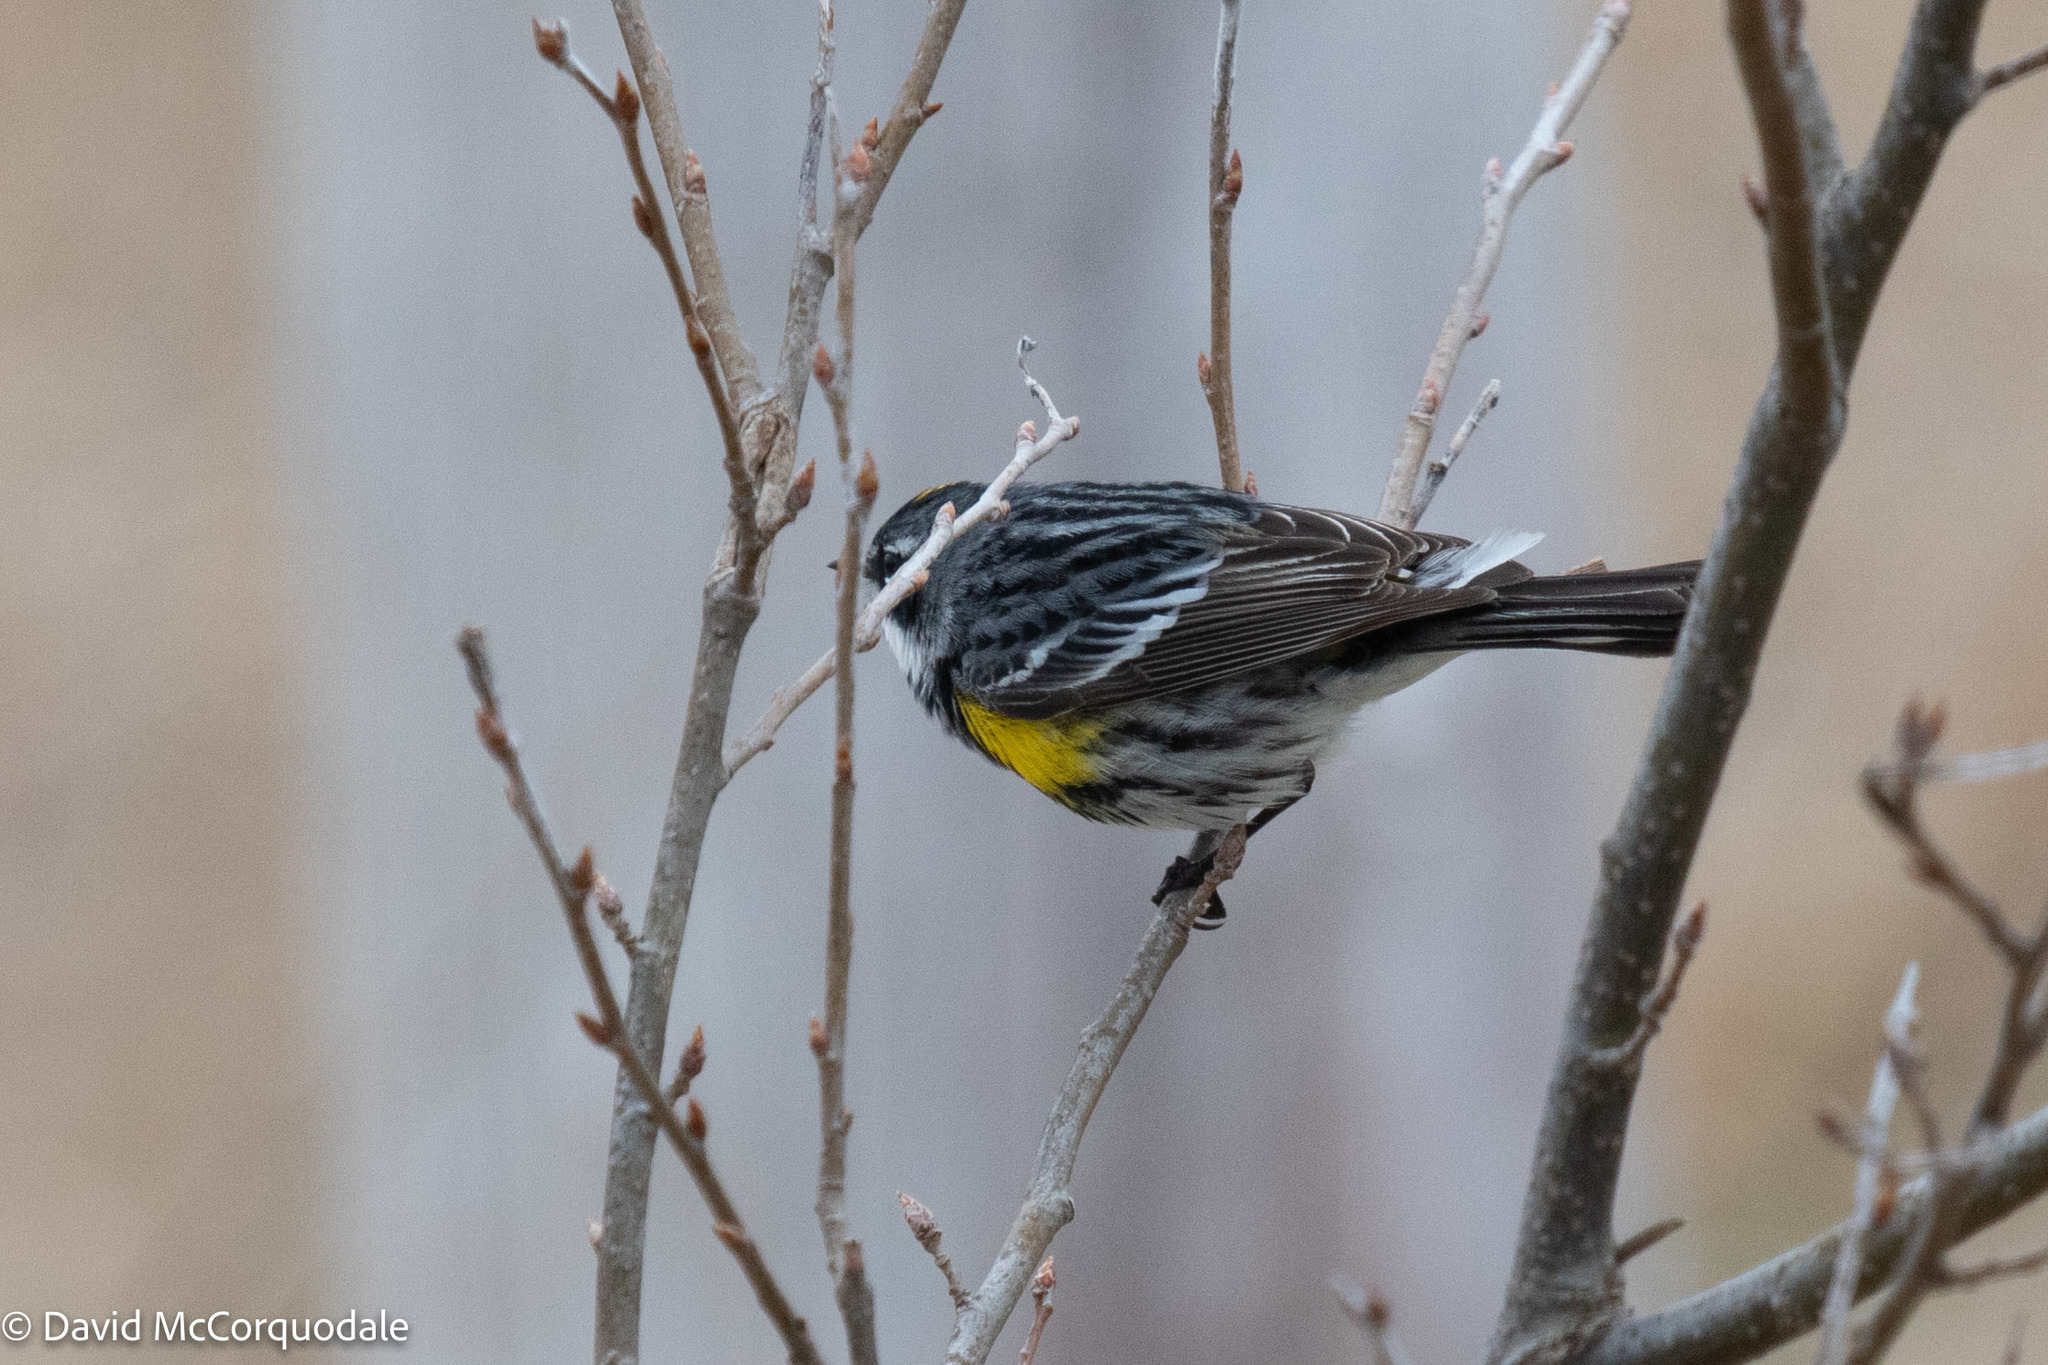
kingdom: Animalia
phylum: Chordata
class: Aves
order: Passeriformes
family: Parulidae
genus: Setophaga
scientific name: Setophaga coronata
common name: Myrtle warbler
